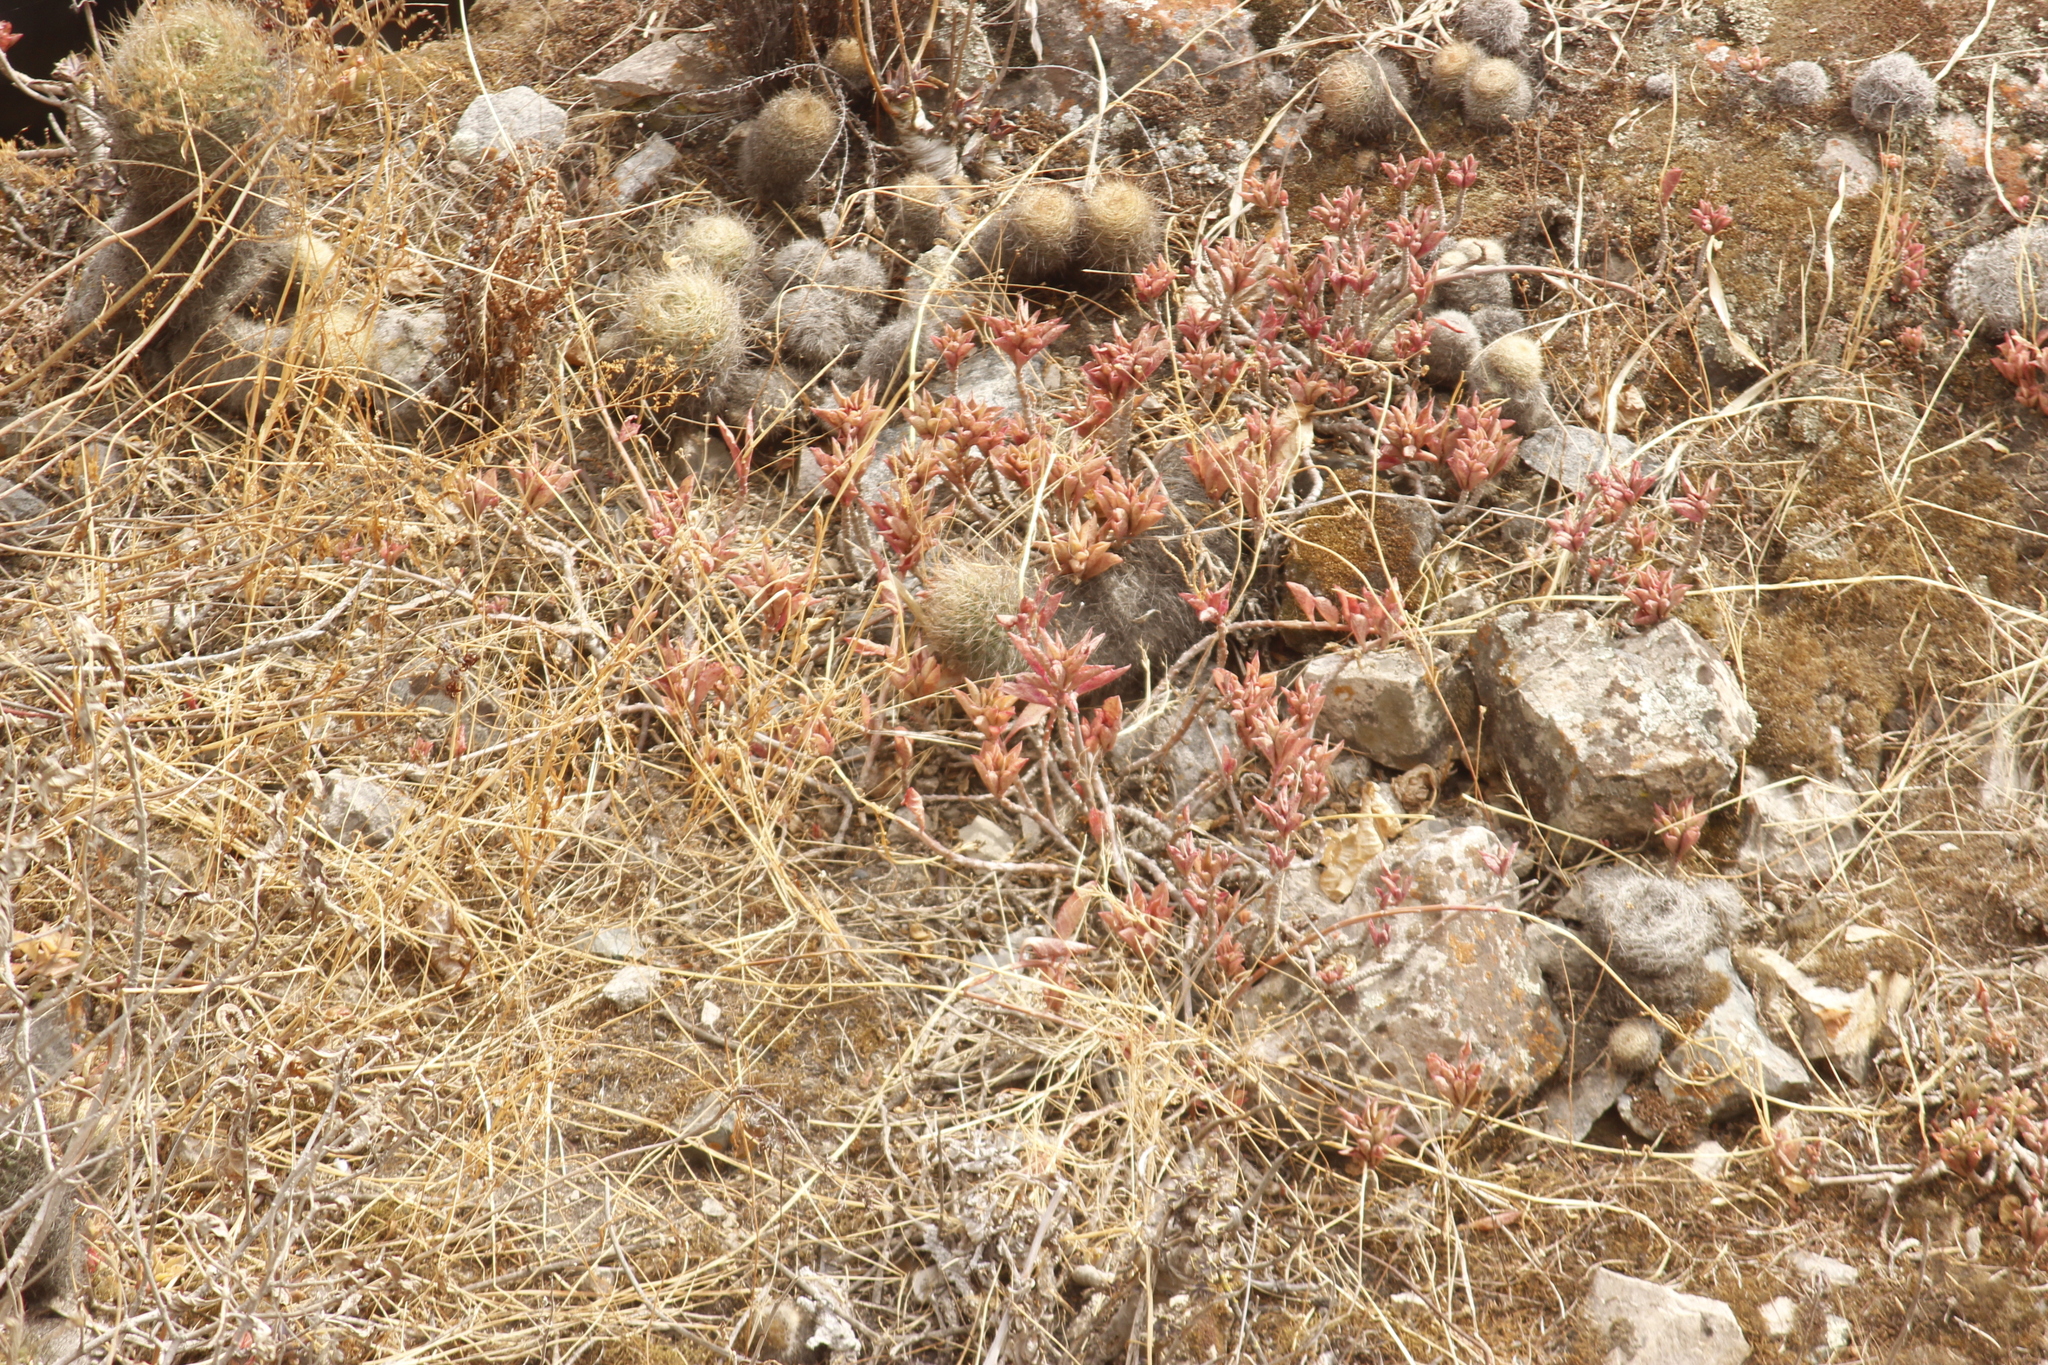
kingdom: Plantae
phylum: Tracheophyta
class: Magnoliopsida
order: Caryophyllales
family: Cactaceae
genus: Matucana
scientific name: Matucana haynii
